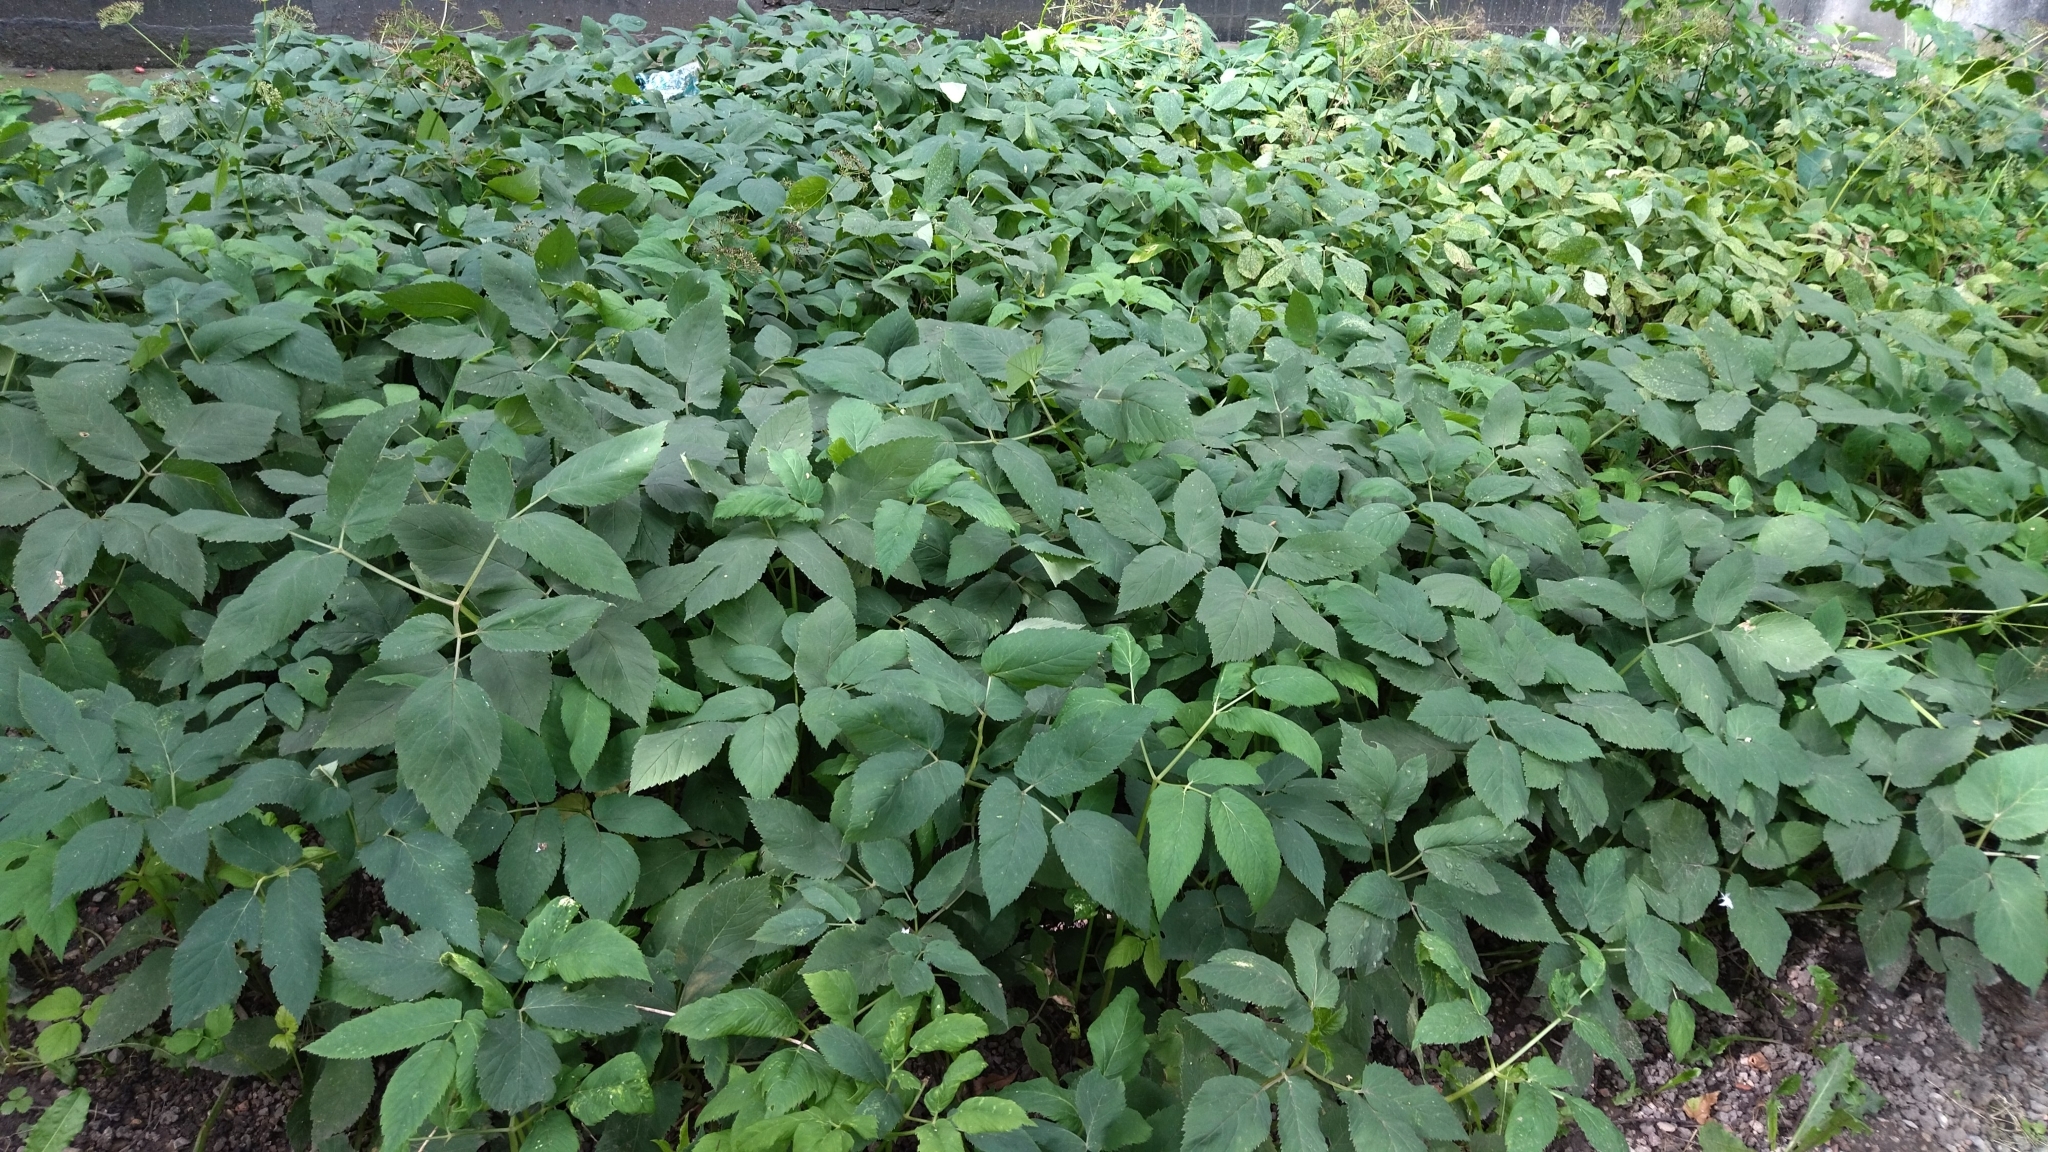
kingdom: Plantae
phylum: Tracheophyta
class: Magnoliopsida
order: Apiales
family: Apiaceae
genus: Aegopodium
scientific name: Aegopodium podagraria
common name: Ground-elder
